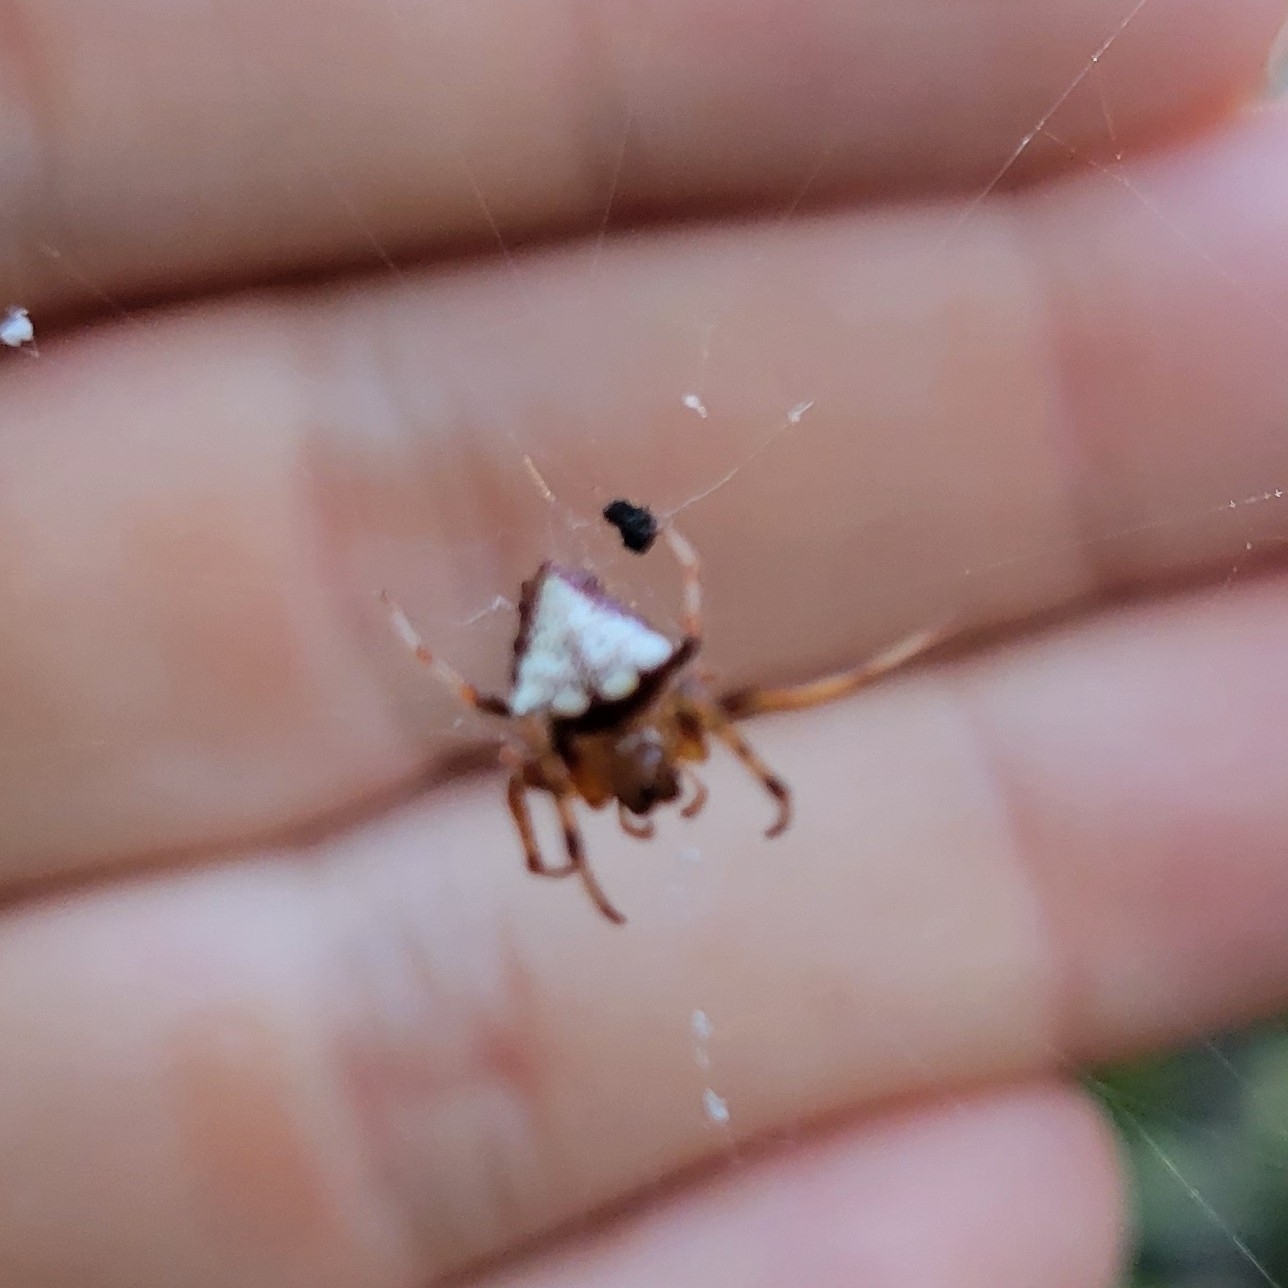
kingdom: Animalia
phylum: Arthropoda
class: Arachnida
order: Araneae
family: Araneidae
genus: Verrucosa
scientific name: Verrucosa arenata
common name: Orb weavers
